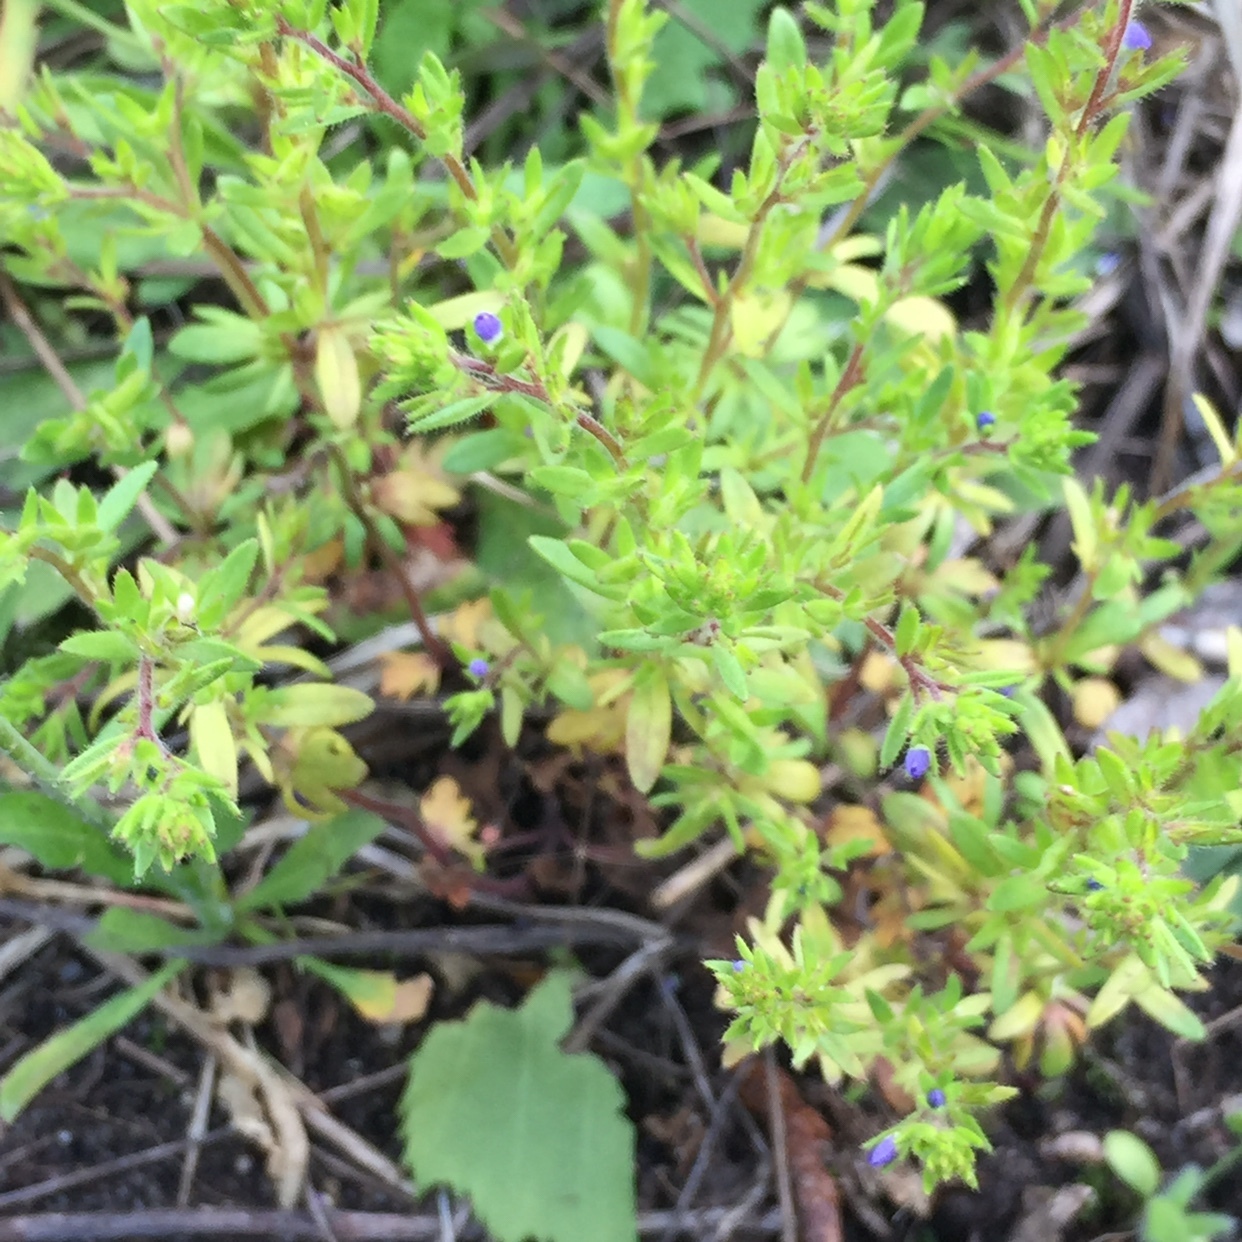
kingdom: Plantae
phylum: Tracheophyta
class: Magnoliopsida
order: Lamiales
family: Plantaginaceae
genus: Veronica
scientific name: Veronica verna
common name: Spring speedwell
